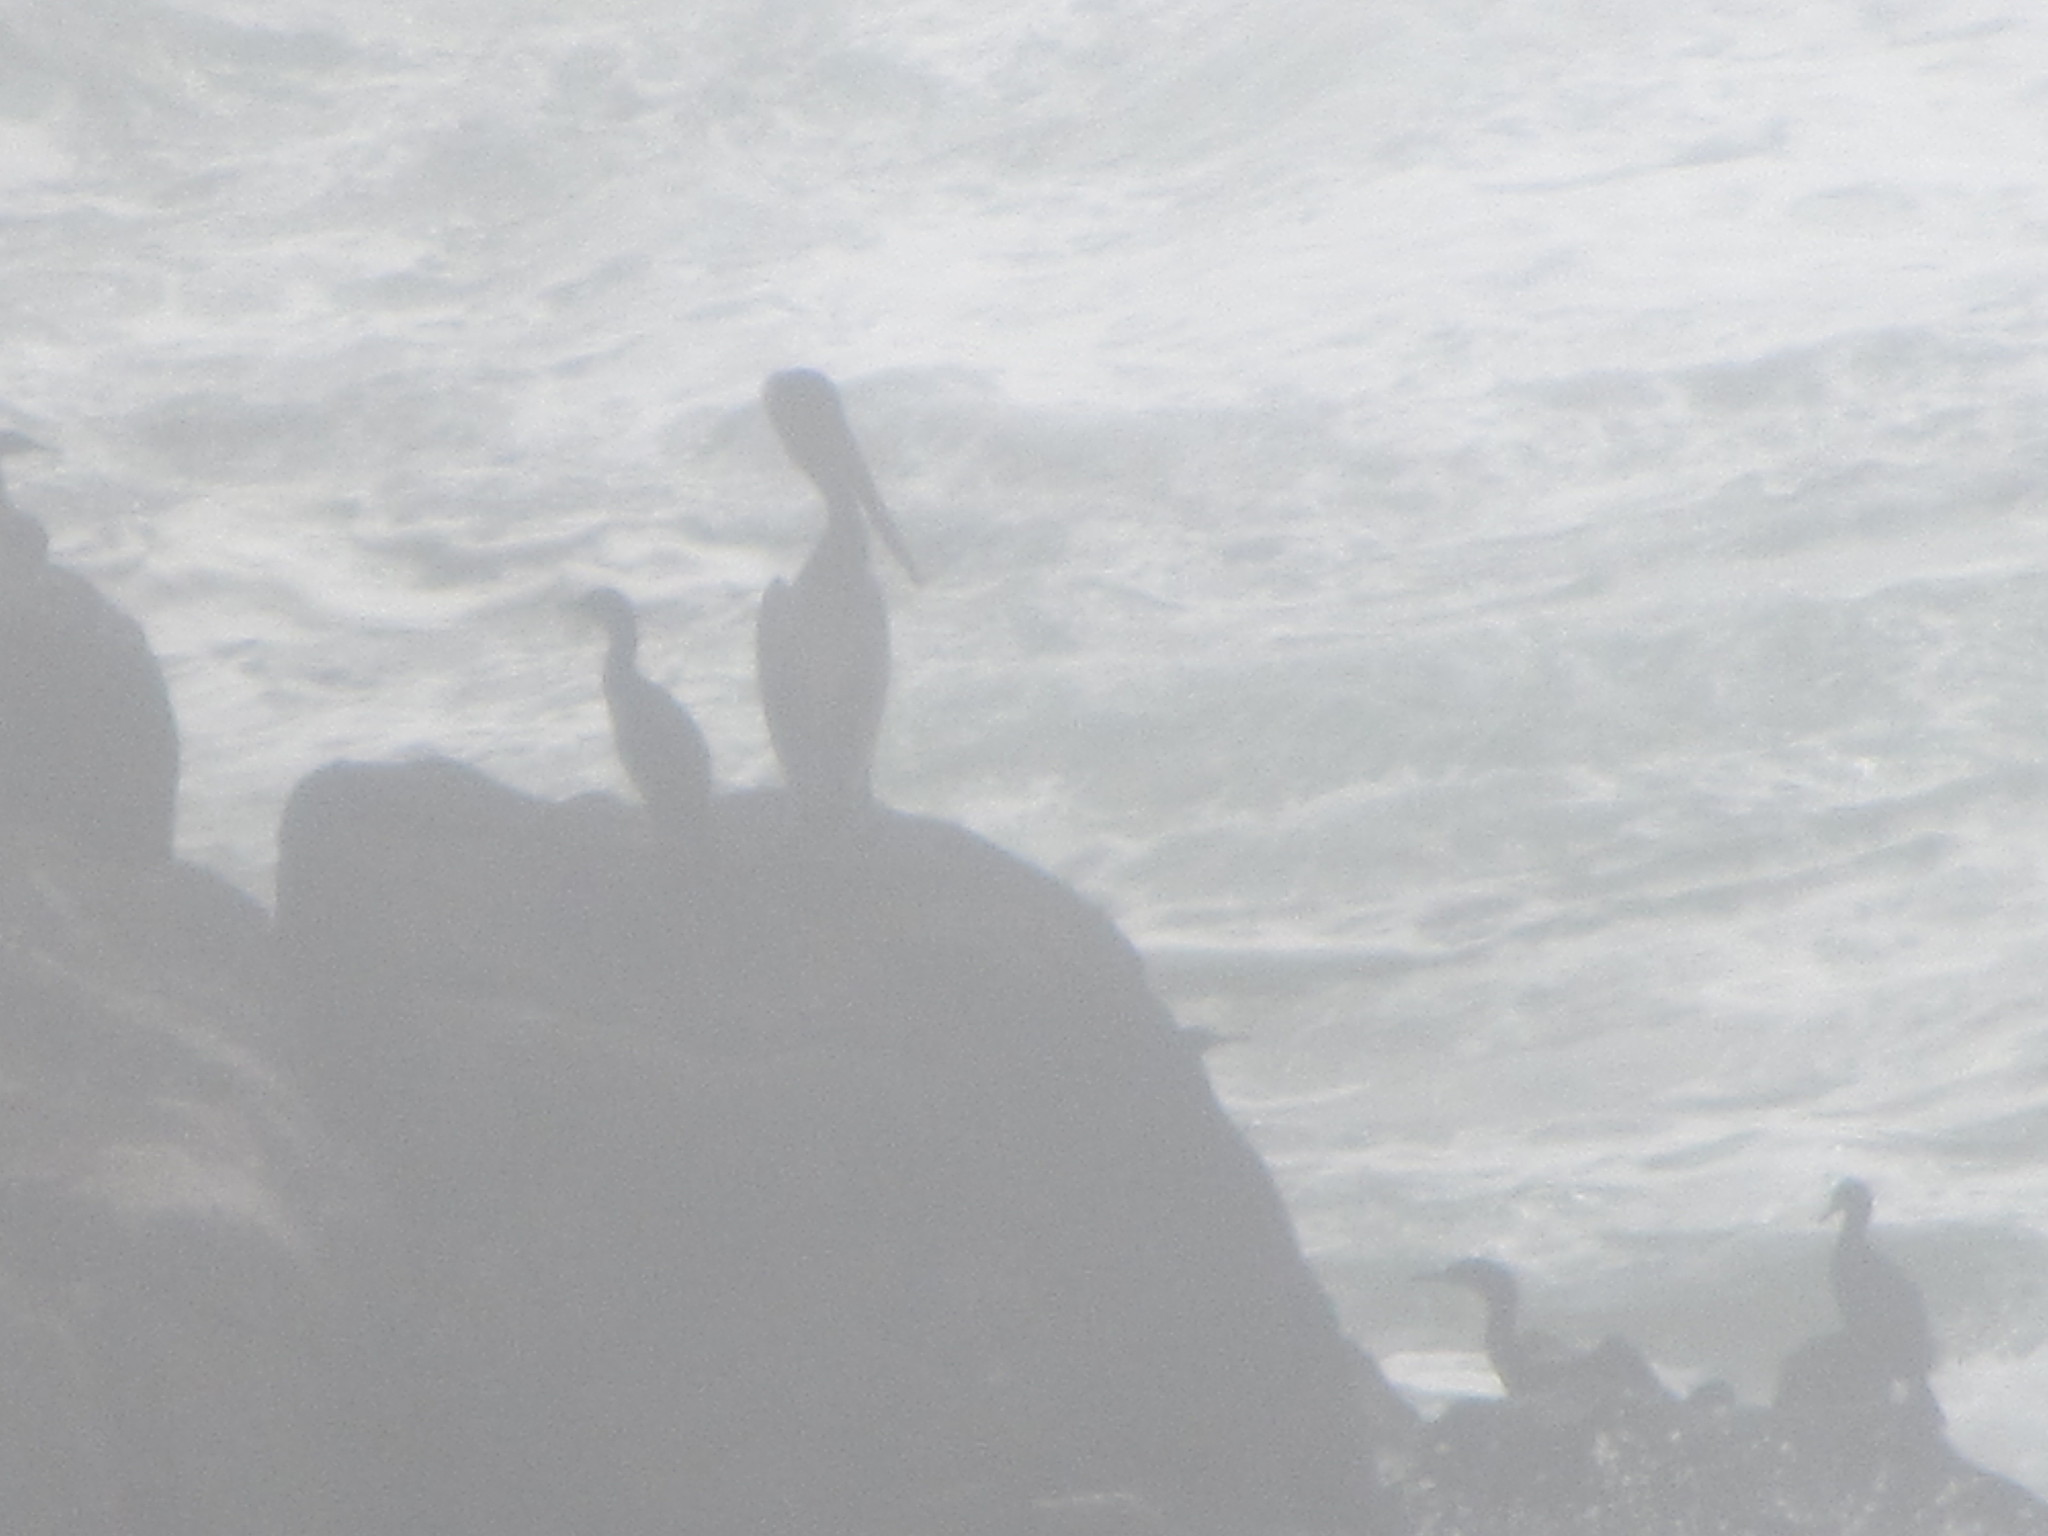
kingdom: Animalia
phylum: Chordata
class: Aves
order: Pelecaniformes
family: Pelecanidae
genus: Pelecanus
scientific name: Pelecanus occidentalis
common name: Brown pelican
